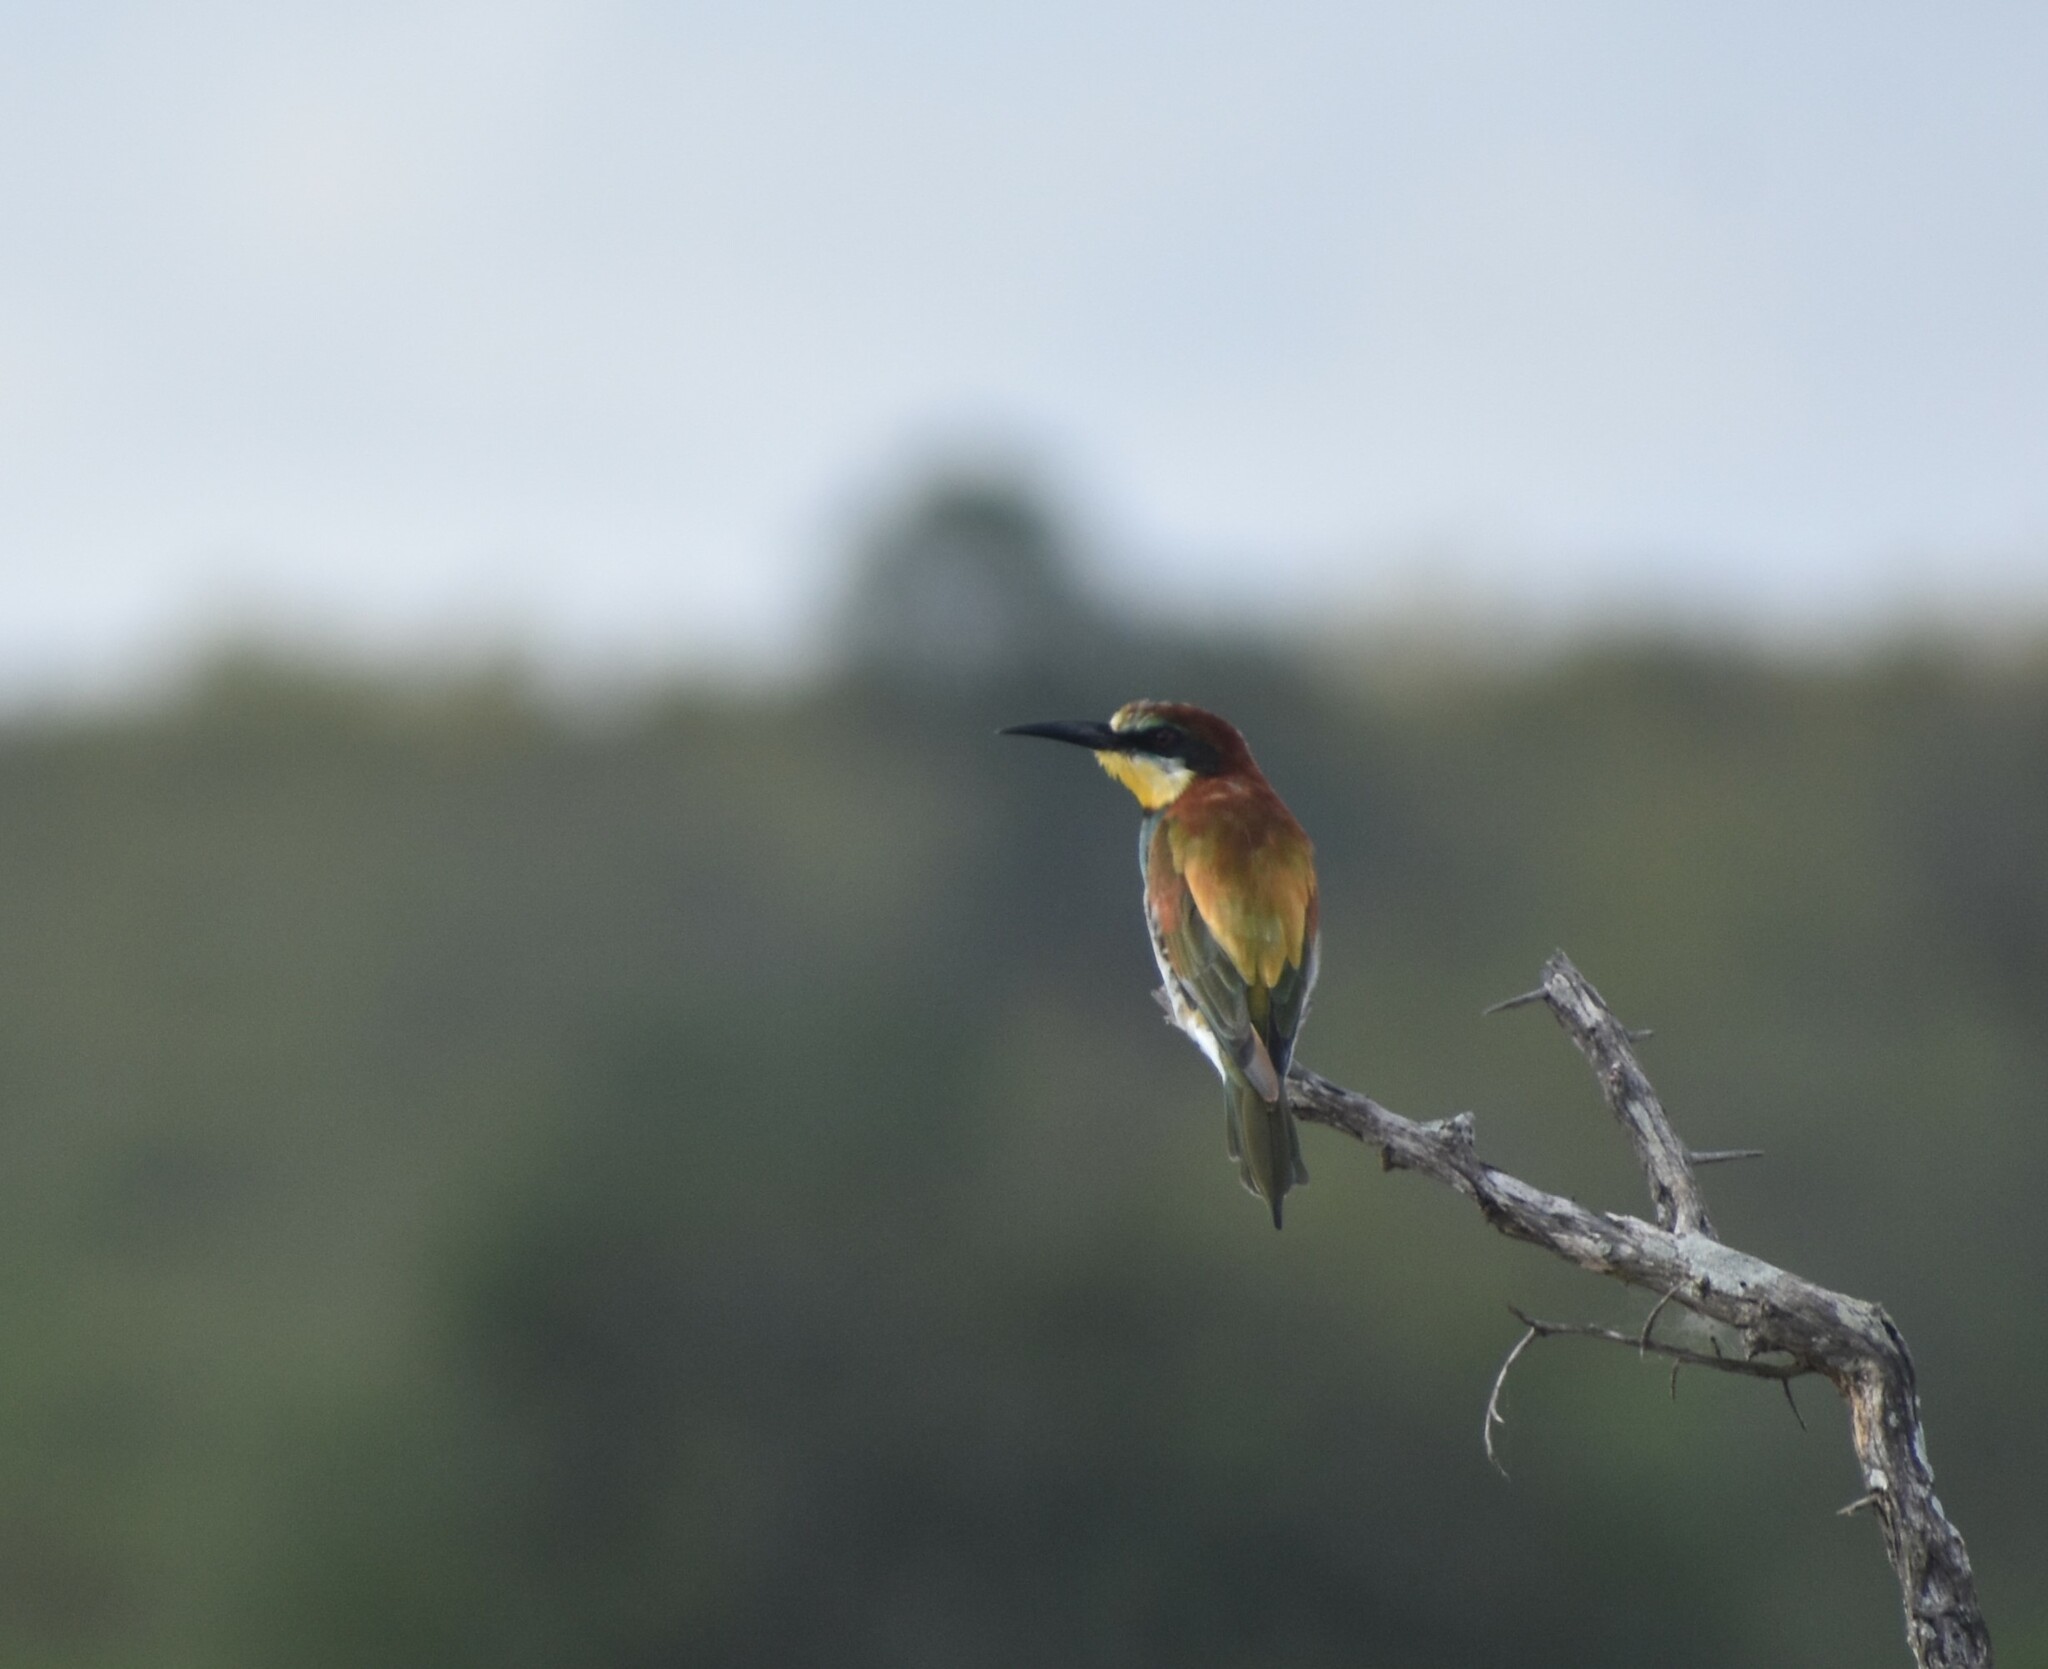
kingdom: Animalia
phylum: Chordata
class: Aves
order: Coraciiformes
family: Meropidae
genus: Merops
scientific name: Merops apiaster
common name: European bee-eater
